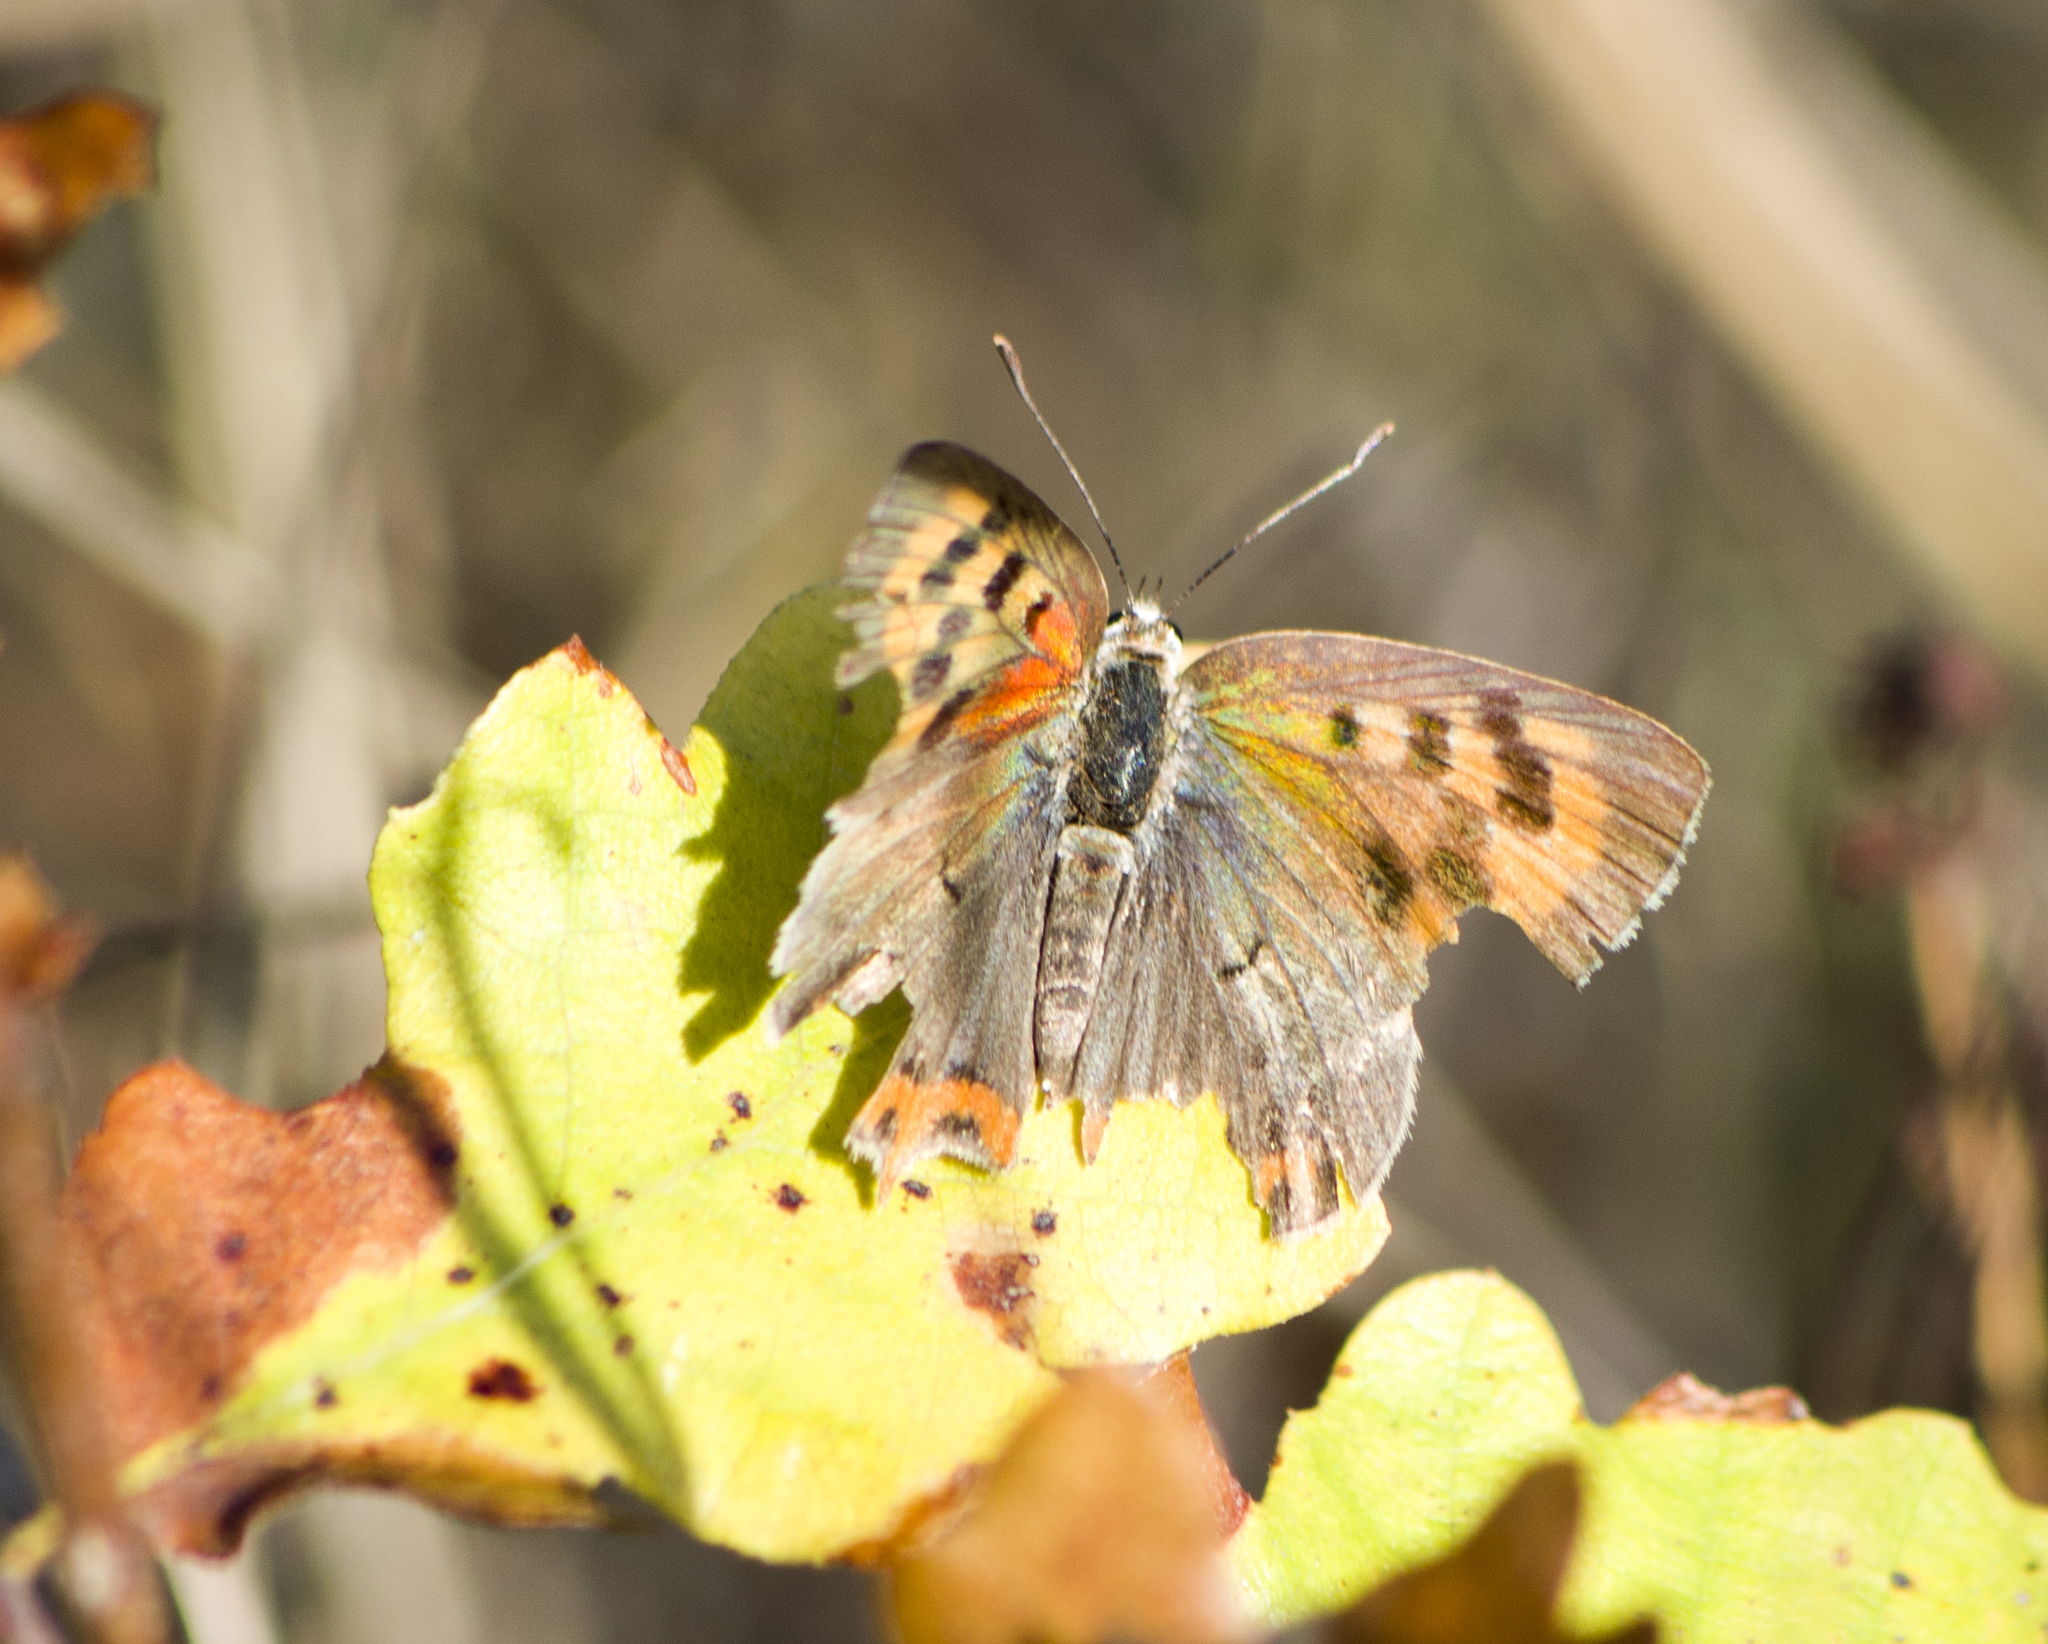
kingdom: Animalia
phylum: Arthropoda
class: Insecta
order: Lepidoptera
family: Lycaenidae
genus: Lycaena
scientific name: Lycaena phlaeas
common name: Small copper
